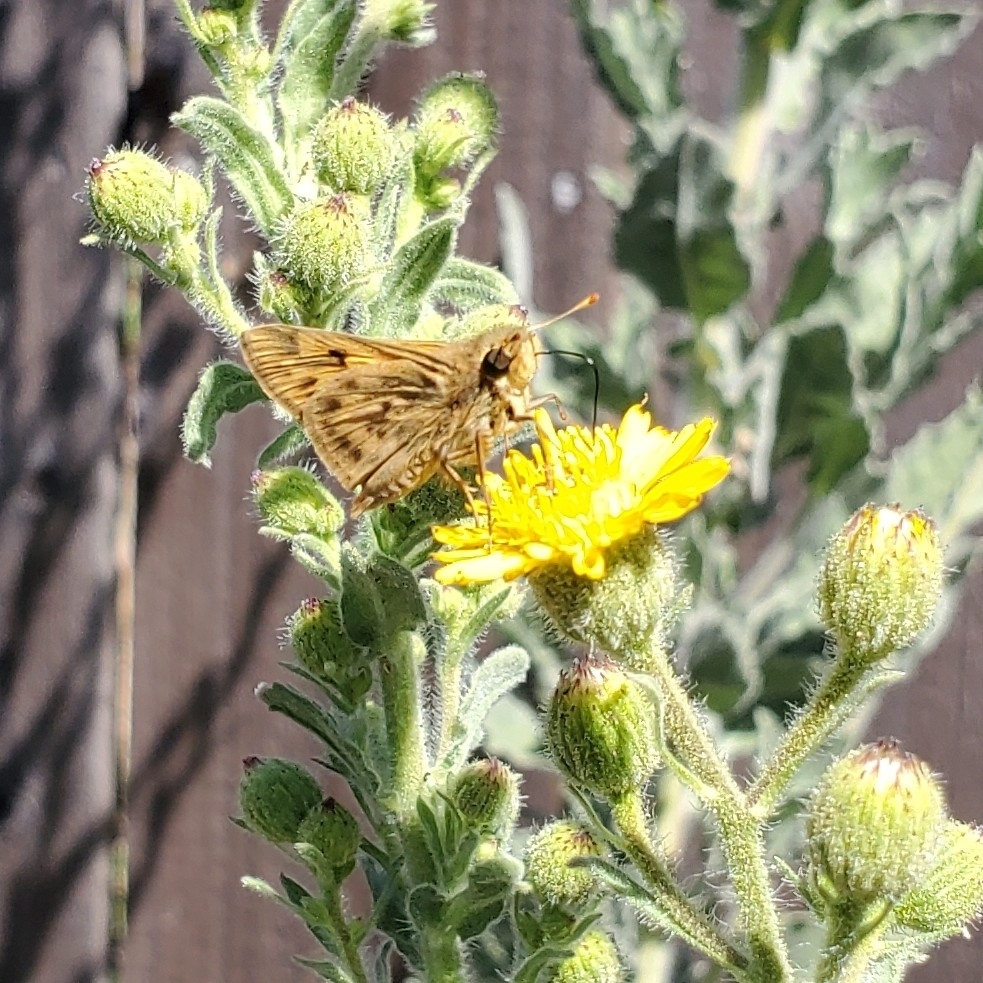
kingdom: Animalia
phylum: Arthropoda
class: Insecta
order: Lepidoptera
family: Hesperiidae
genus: Hylephila
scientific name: Hylephila phyleus
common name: Fiery skipper
